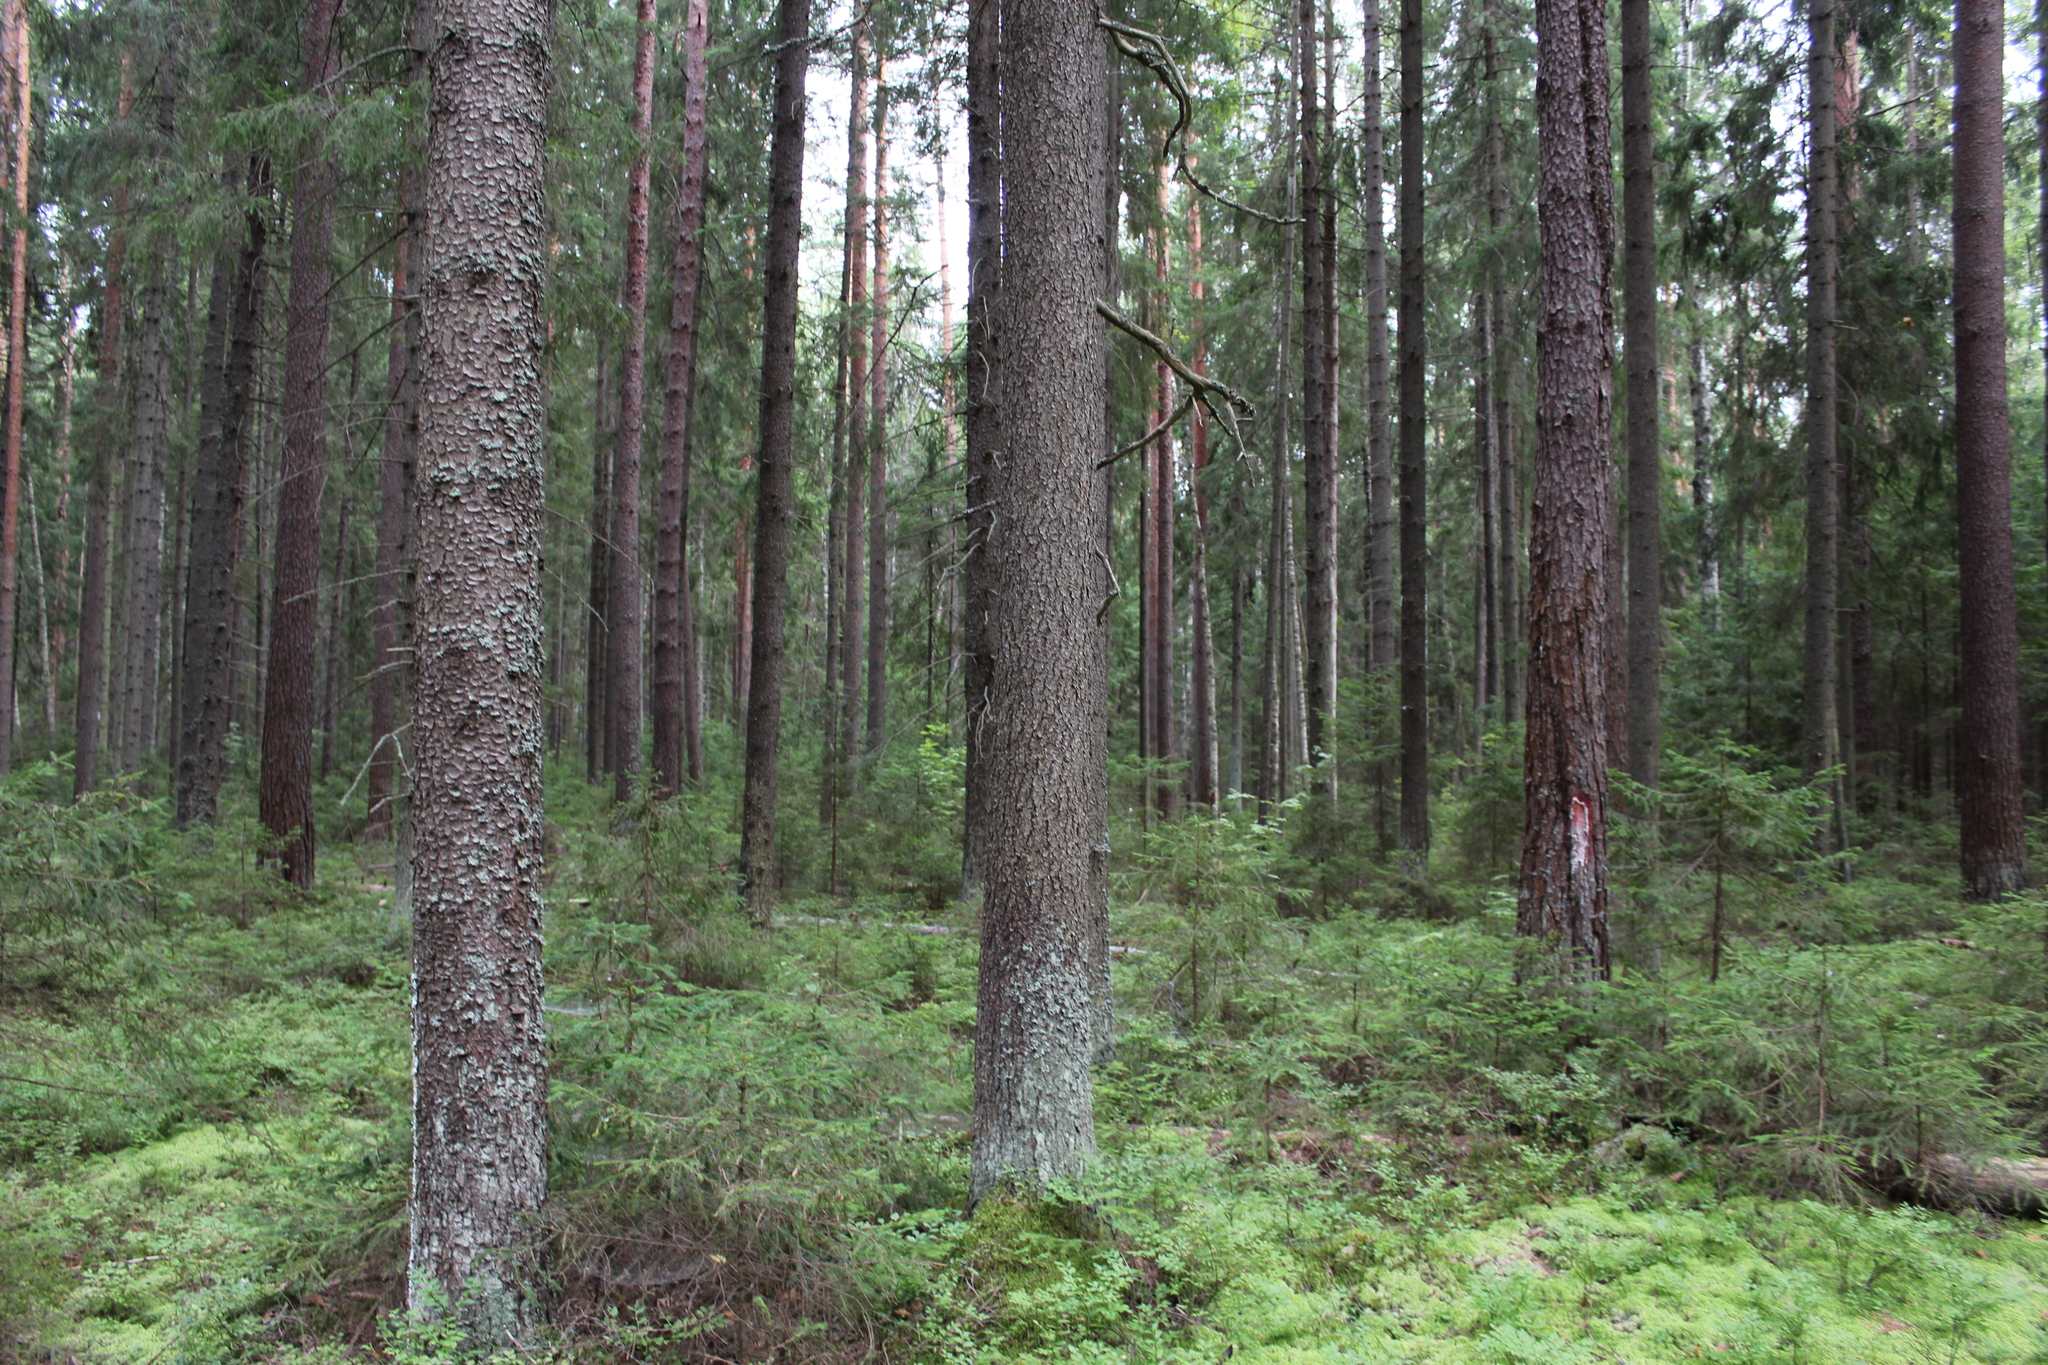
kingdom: Plantae
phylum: Tracheophyta
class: Pinopsida
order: Pinales
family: Pinaceae
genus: Picea
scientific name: Picea abies
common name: Norway spruce
